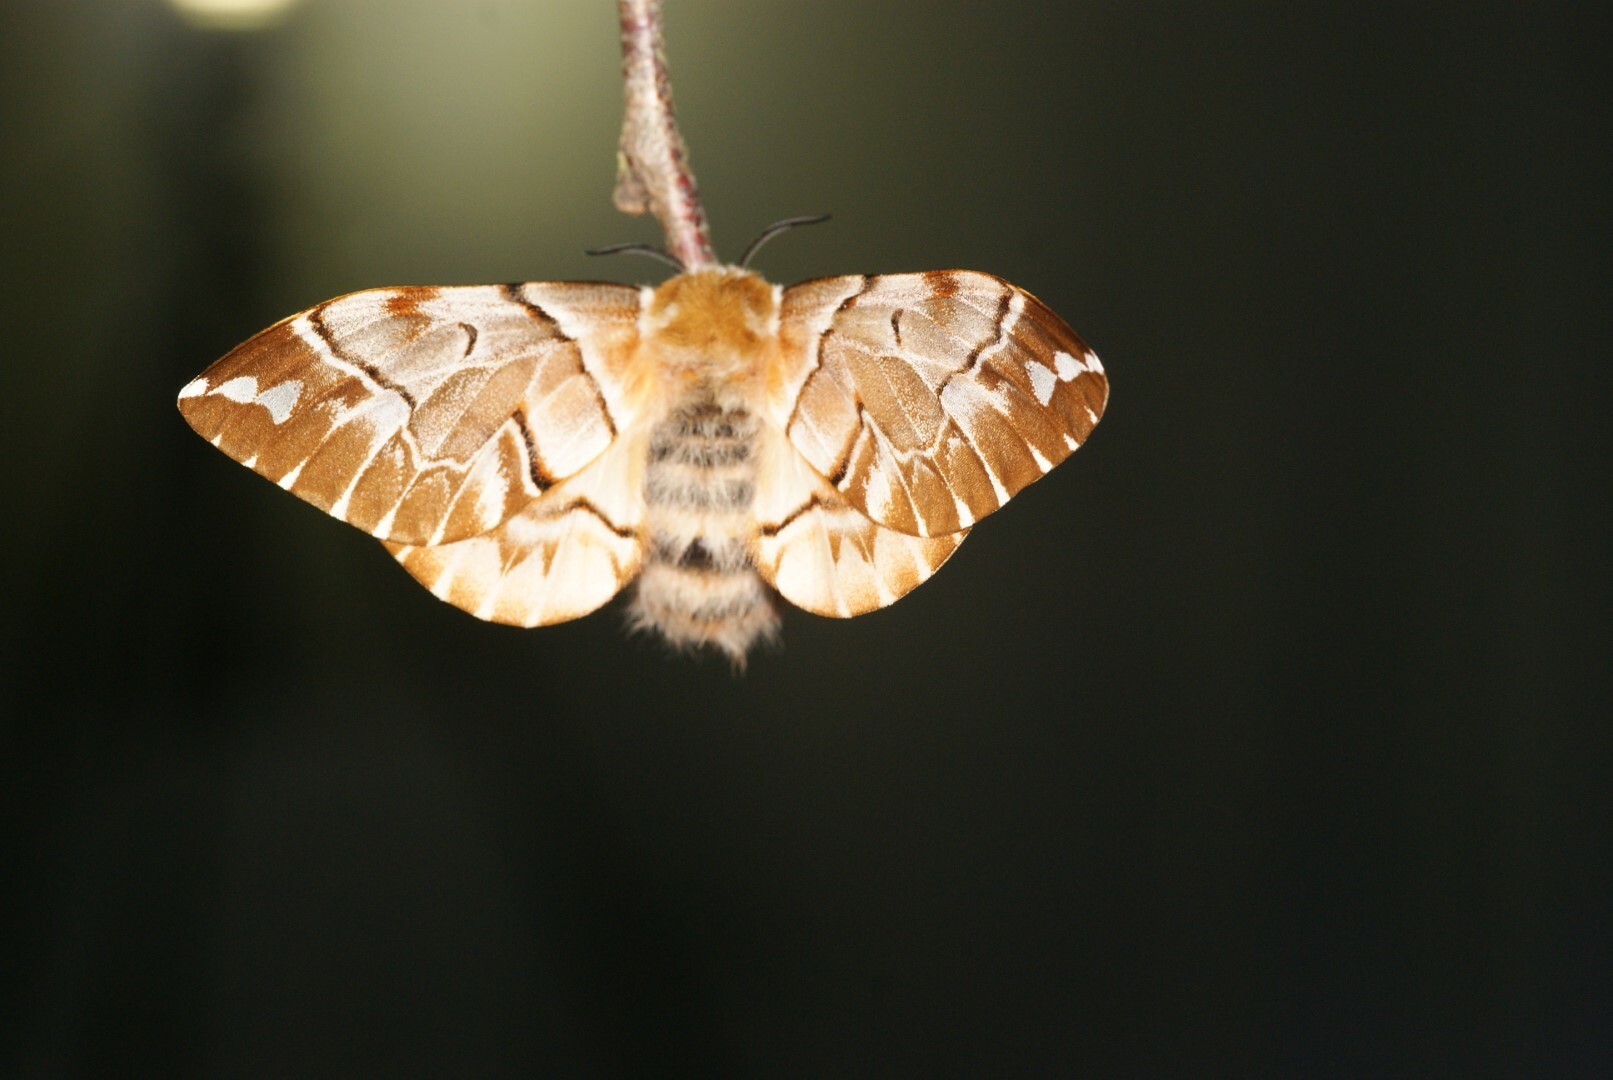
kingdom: Animalia
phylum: Arthropoda
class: Insecta
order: Lepidoptera
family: Endromidae
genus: Endromis
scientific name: Endromis versicolora
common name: Kentish glory
